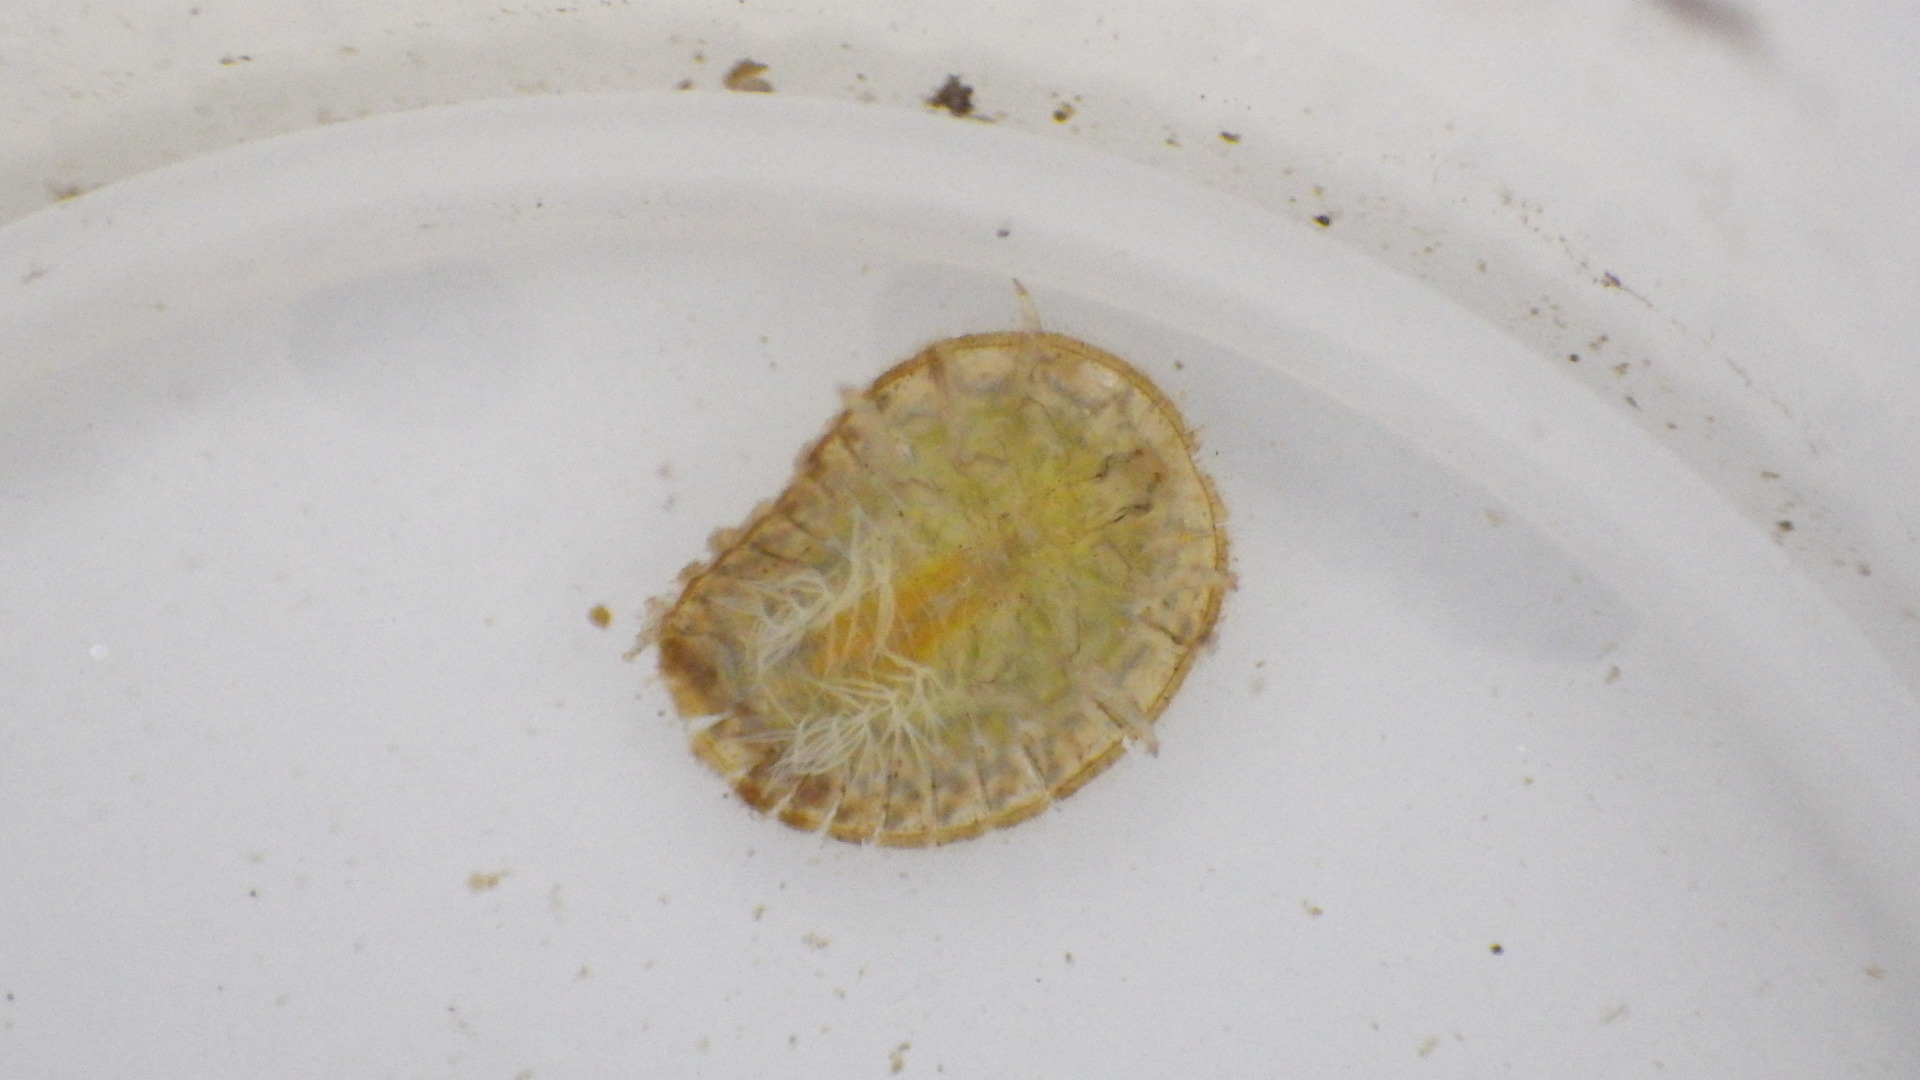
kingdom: Animalia
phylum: Arthropoda
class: Insecta
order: Coleoptera
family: Psephenidae
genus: Psephenus
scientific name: Psephenus herricki
